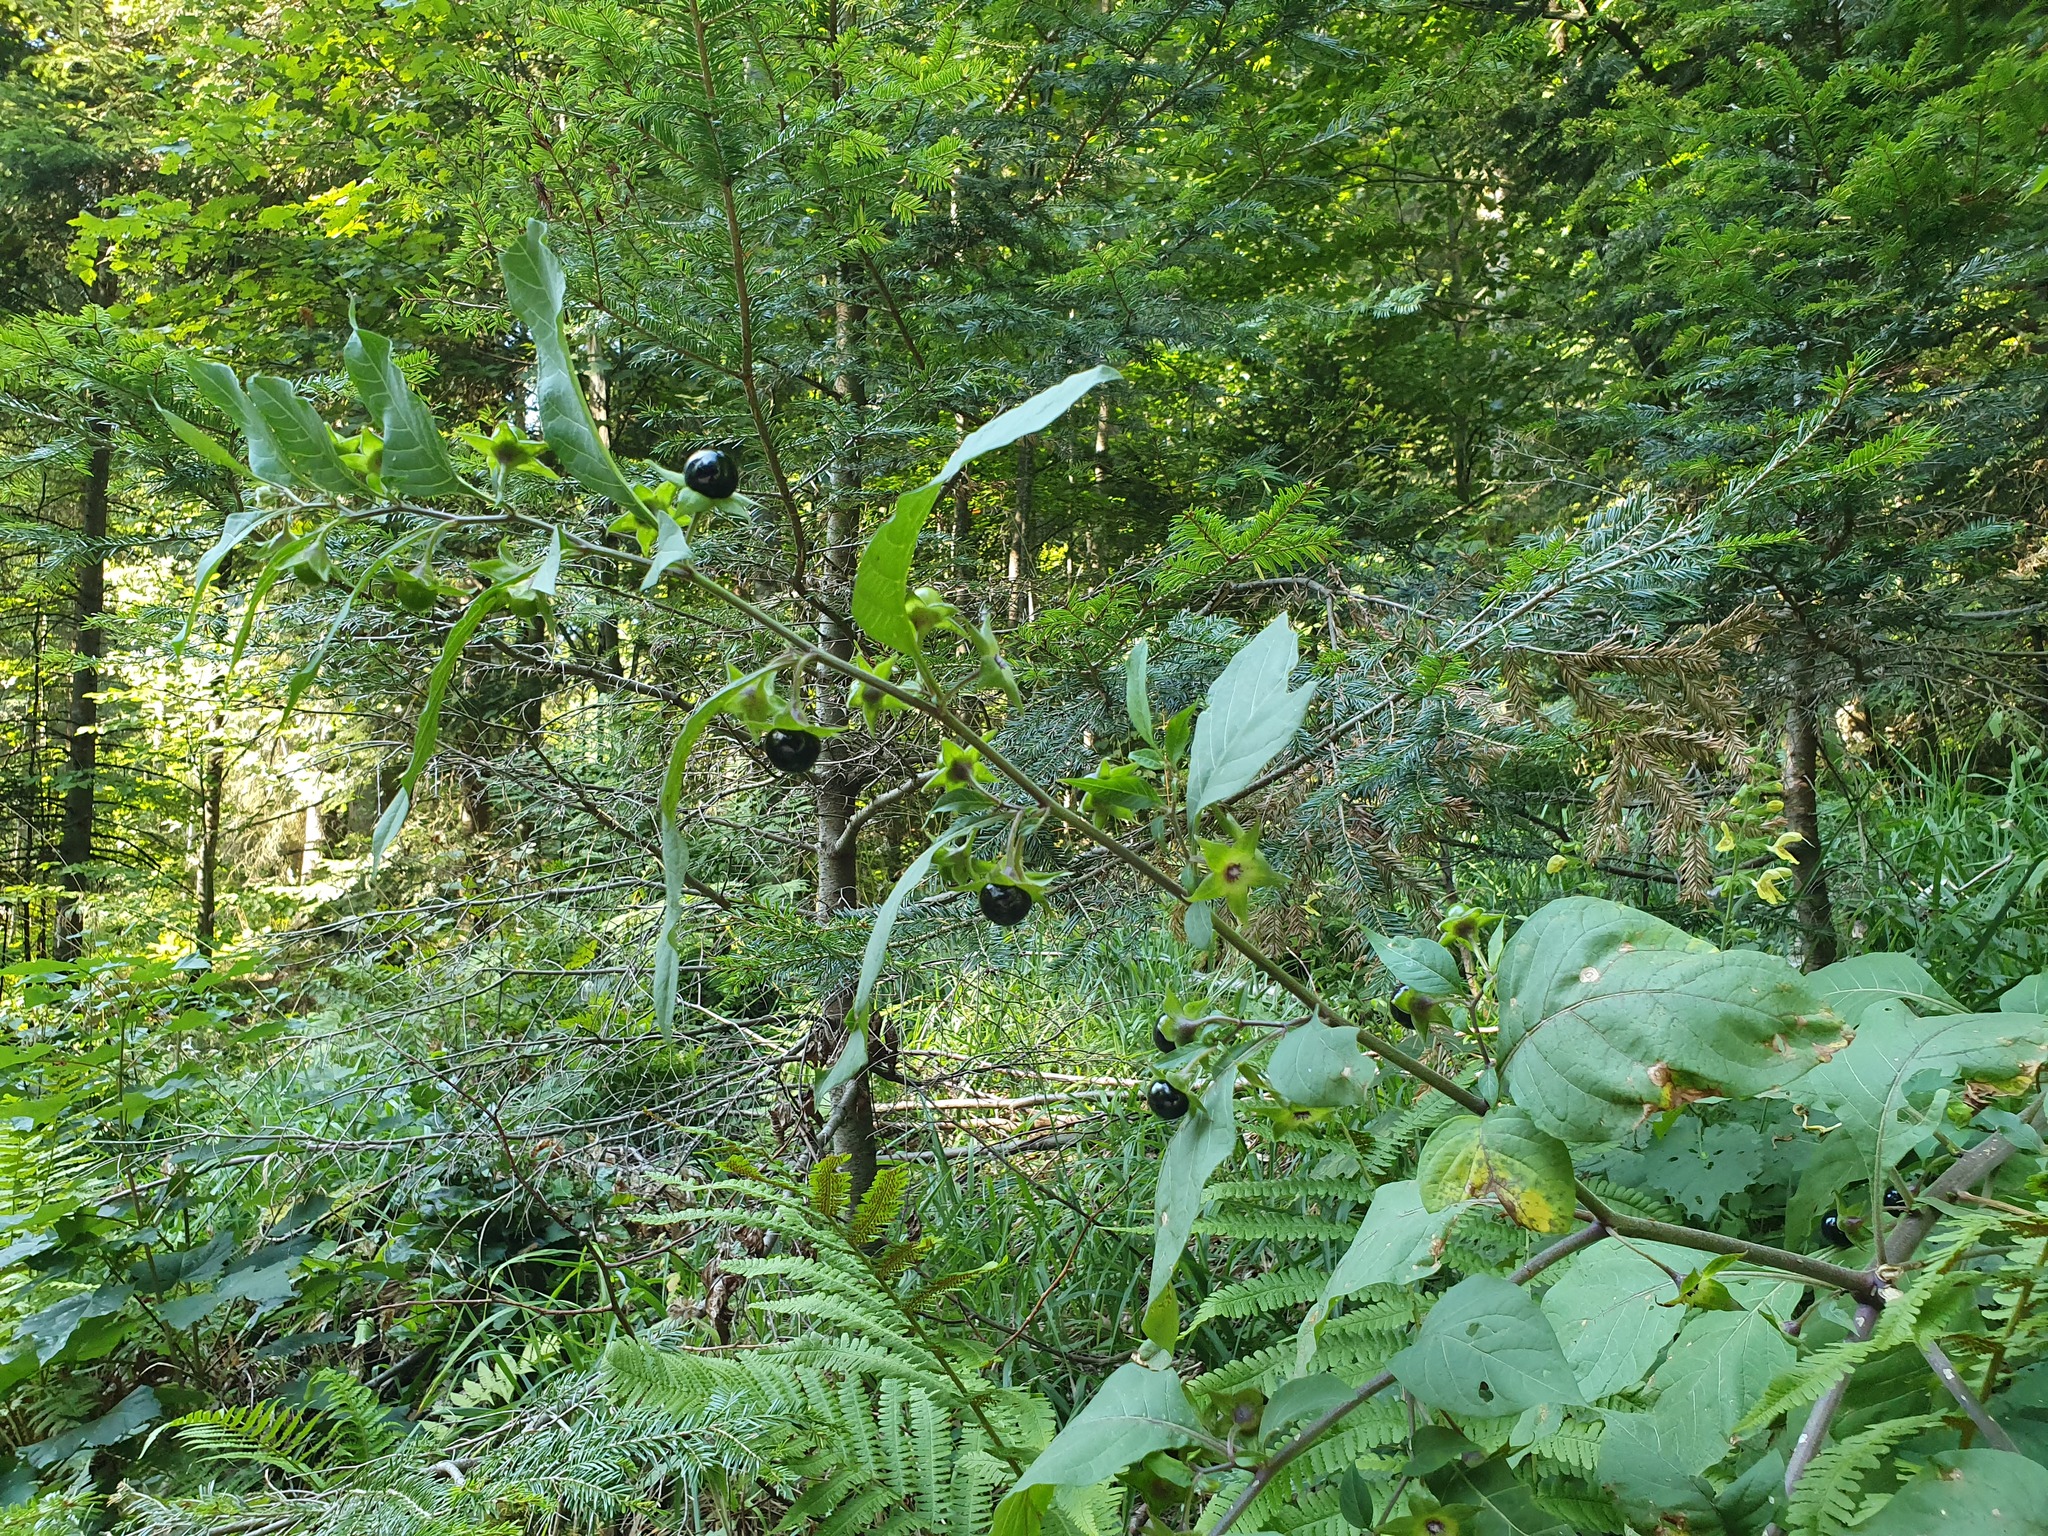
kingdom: Plantae
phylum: Tracheophyta
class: Magnoliopsida
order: Solanales
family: Solanaceae
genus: Atropa
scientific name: Atropa belladonna
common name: Deadly nightshade
